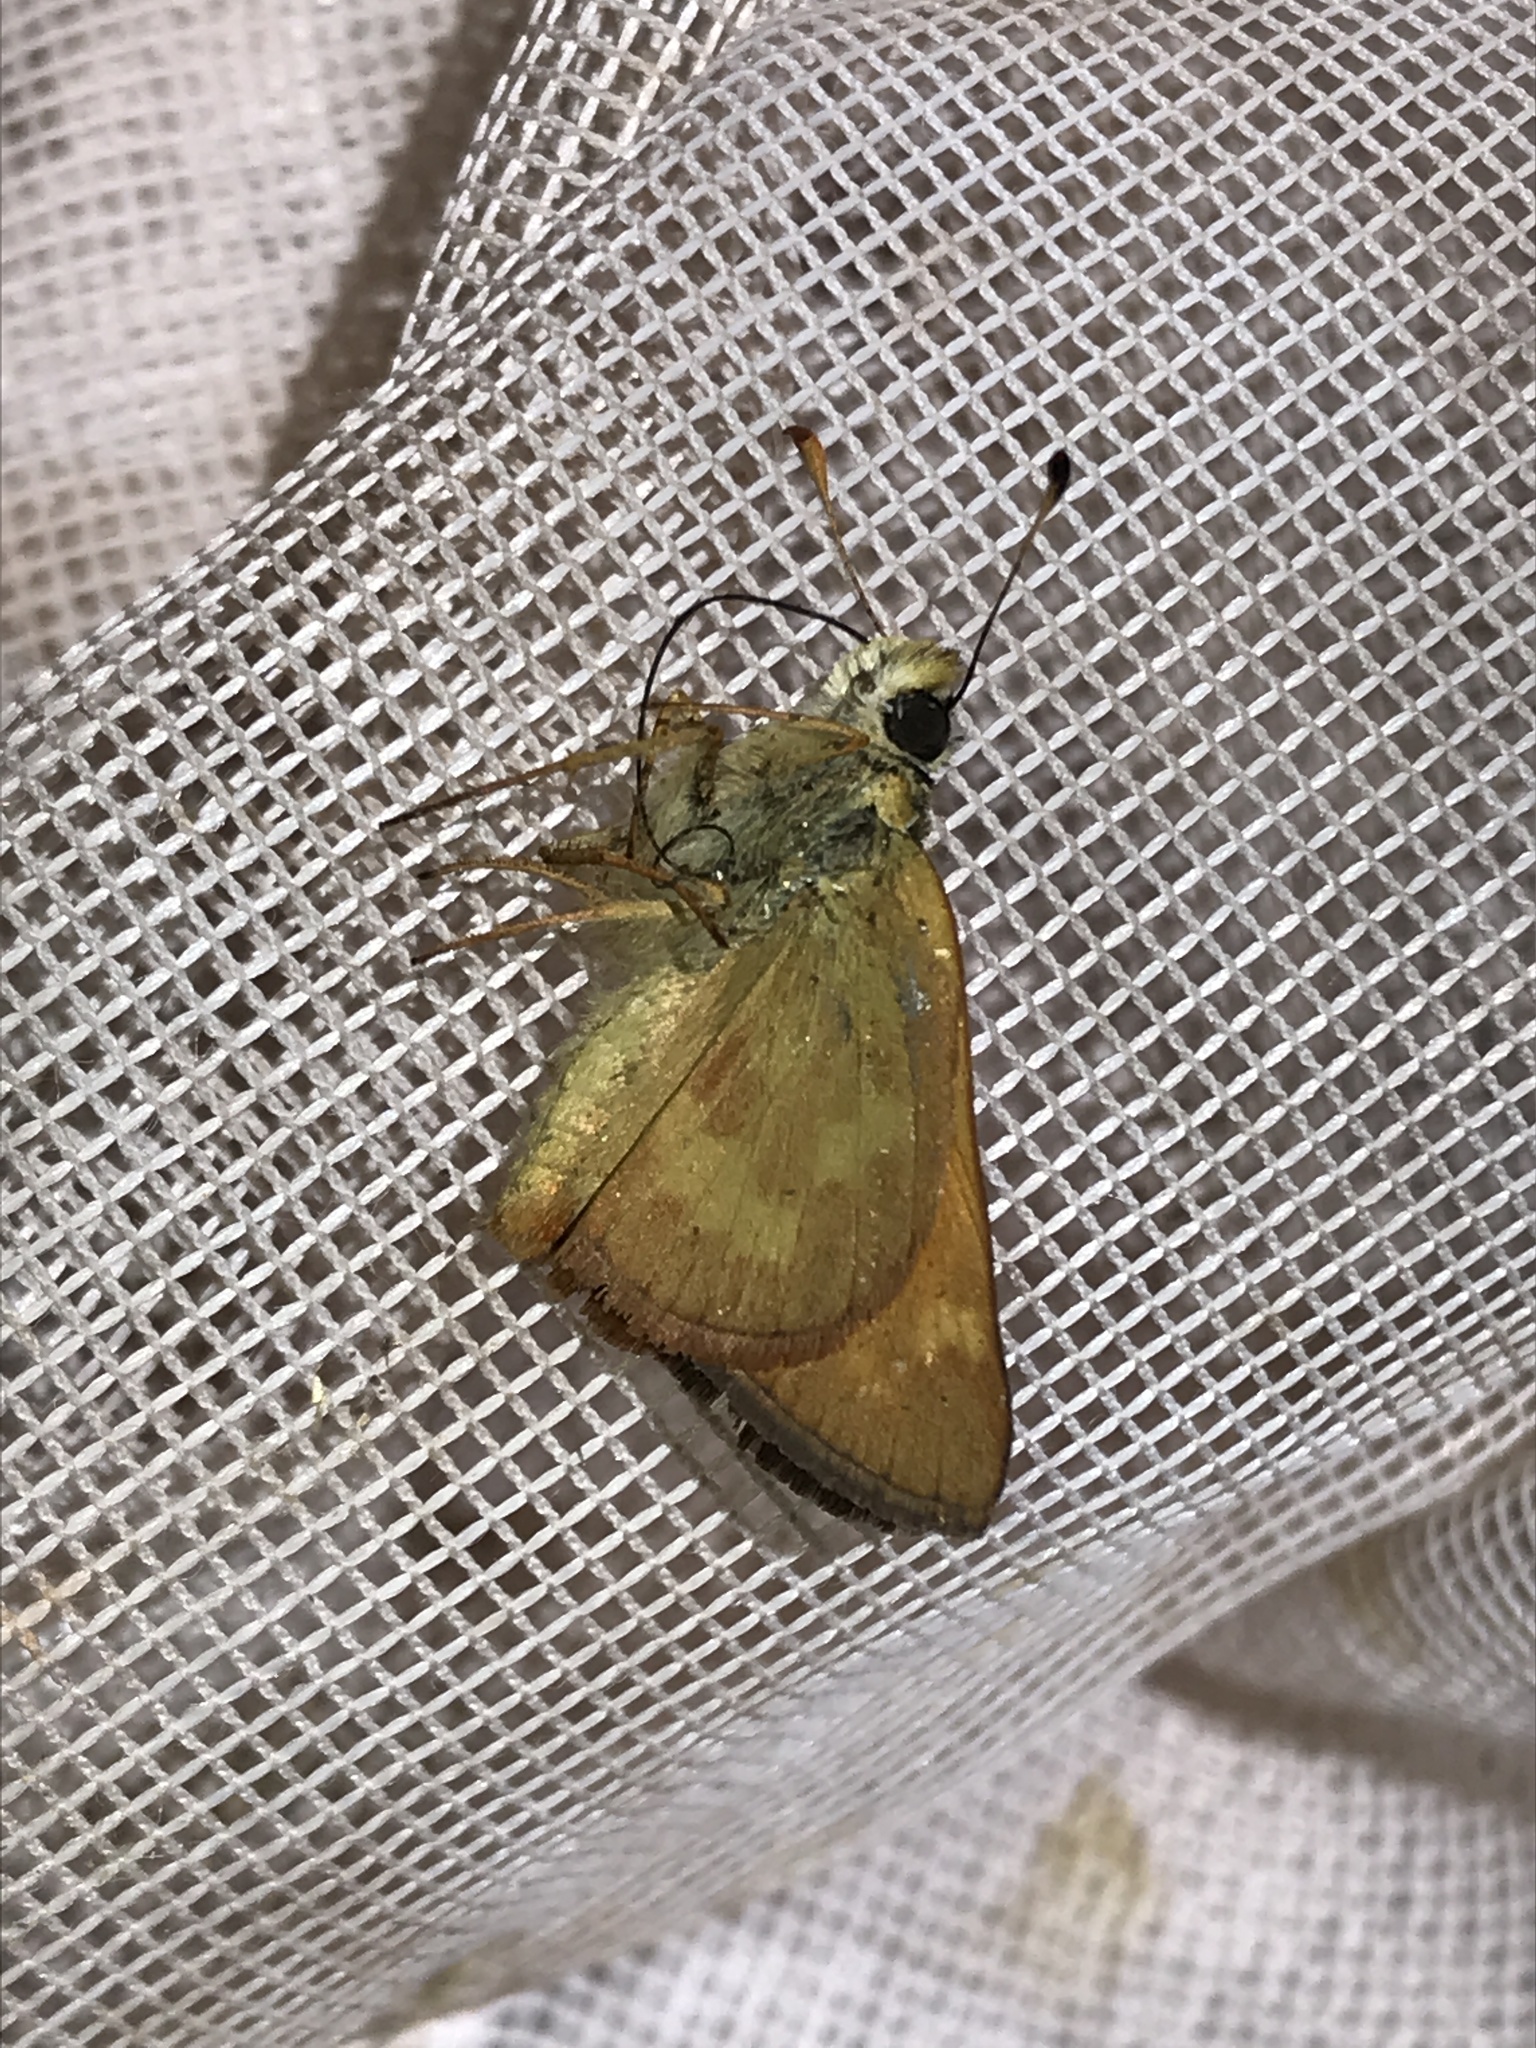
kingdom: Animalia
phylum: Arthropoda
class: Insecta
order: Lepidoptera
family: Hesperiidae
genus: Ochlodes
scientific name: Ochlodes sylvanoides
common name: Woodland skipper
